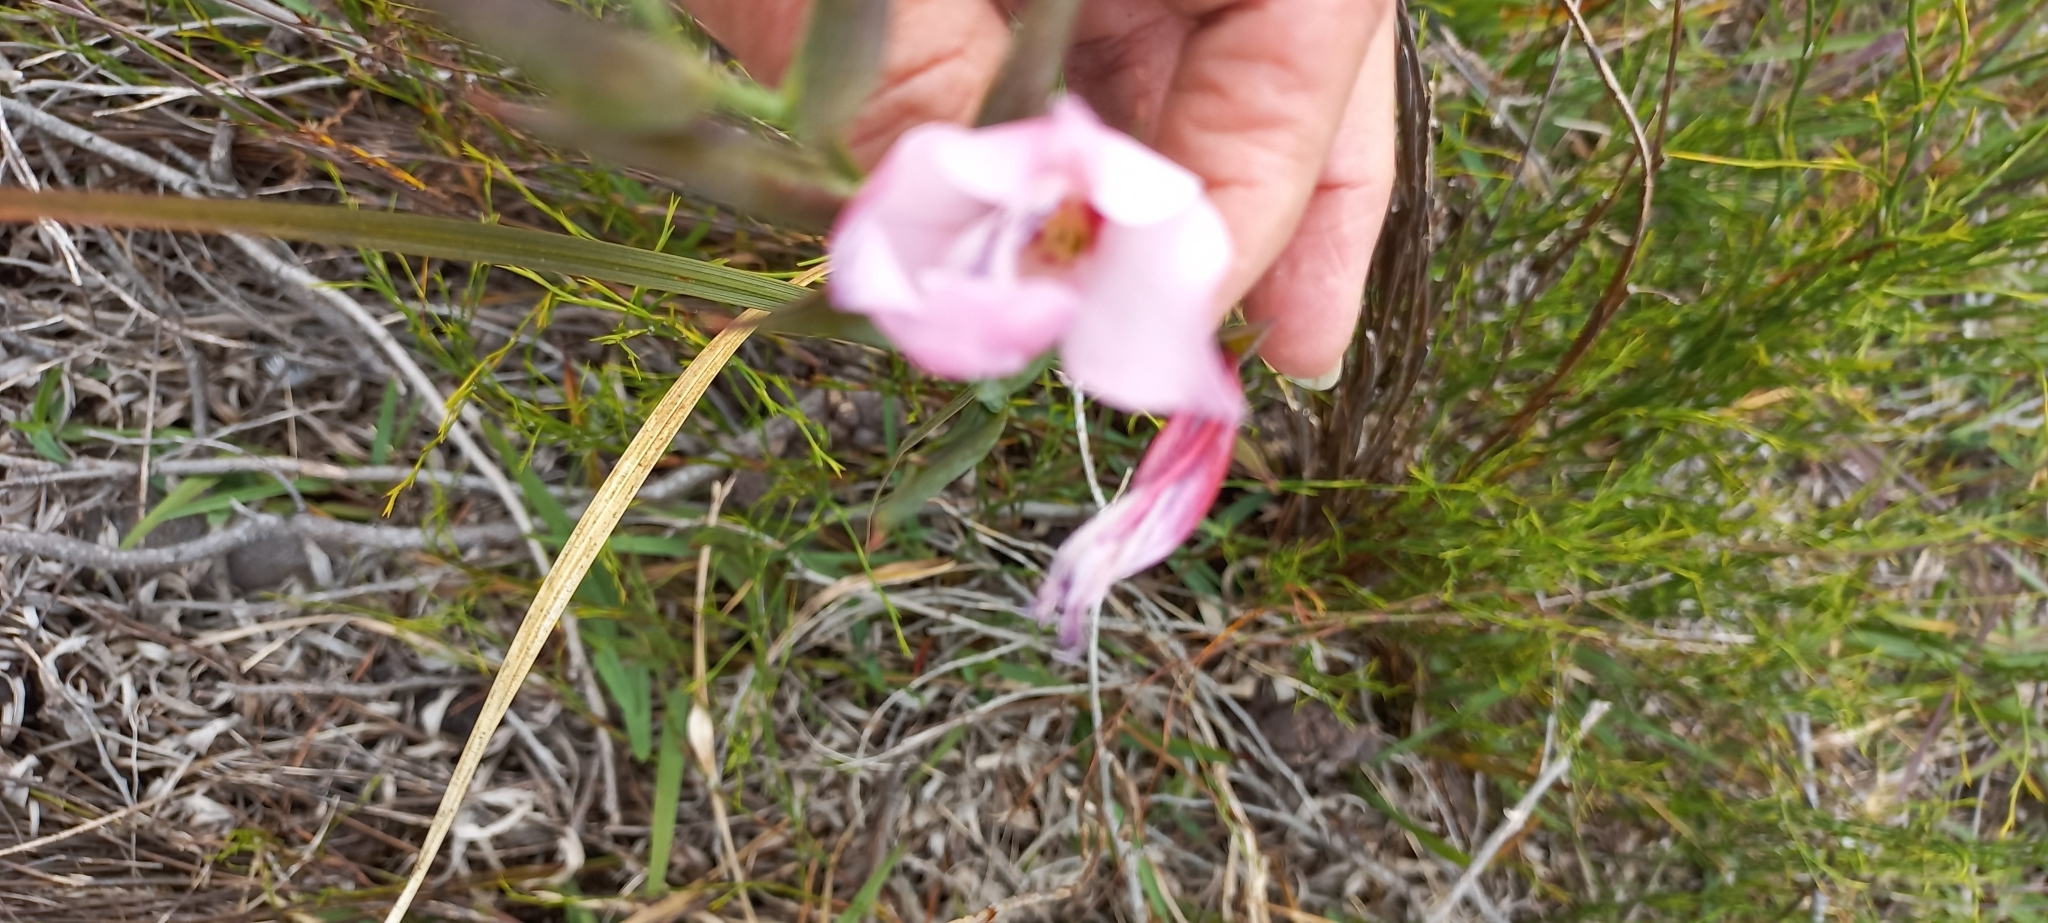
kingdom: Plantae
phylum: Tracheophyta
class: Liliopsida
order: Asparagales
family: Iridaceae
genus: Gladiolus
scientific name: Gladiolus carneus
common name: Painted-lady
